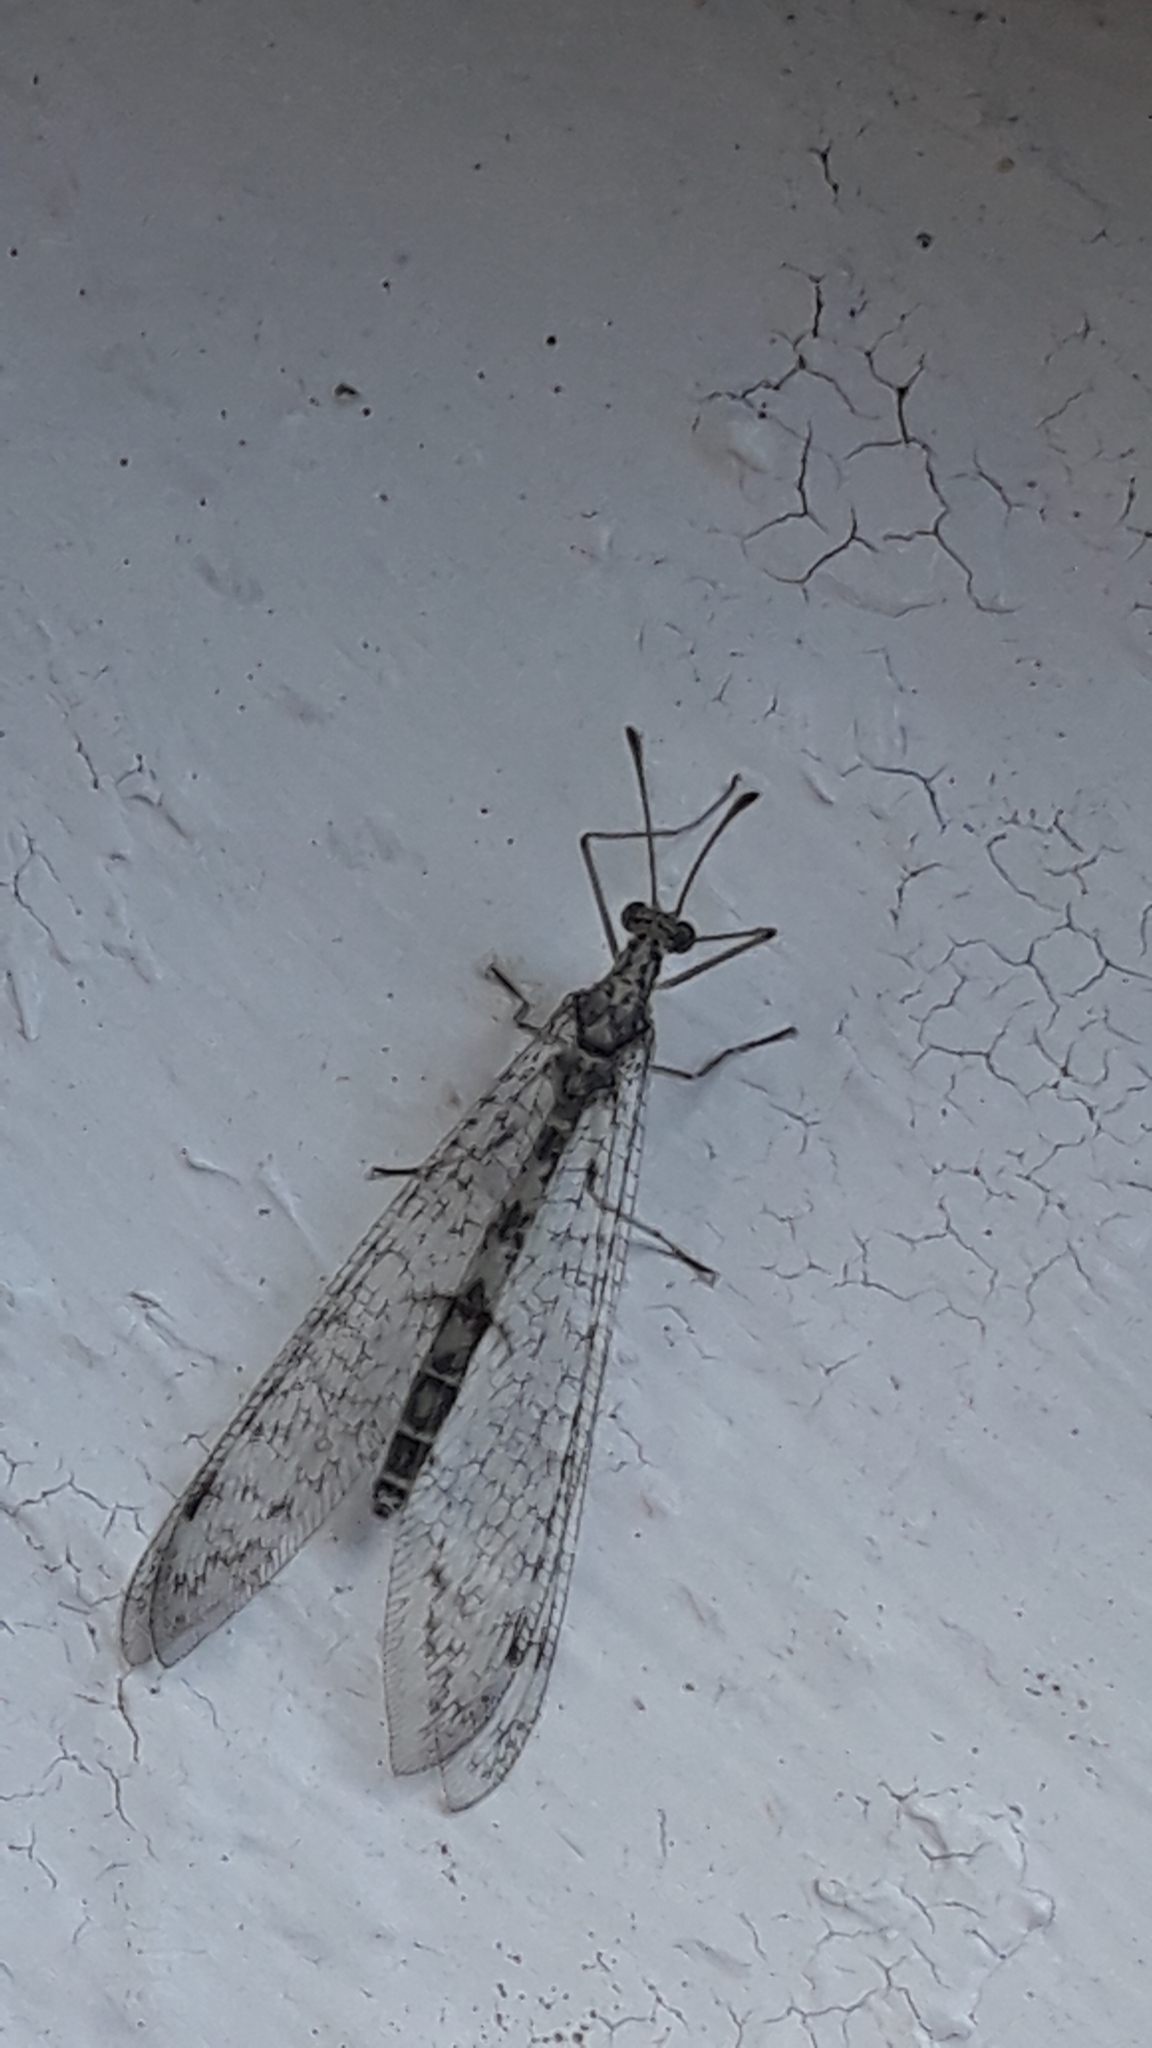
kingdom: Animalia
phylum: Arthropoda
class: Insecta
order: Neuroptera
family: Myrmeleontidae
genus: Gymnocnemia
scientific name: Gymnocnemia variegata
